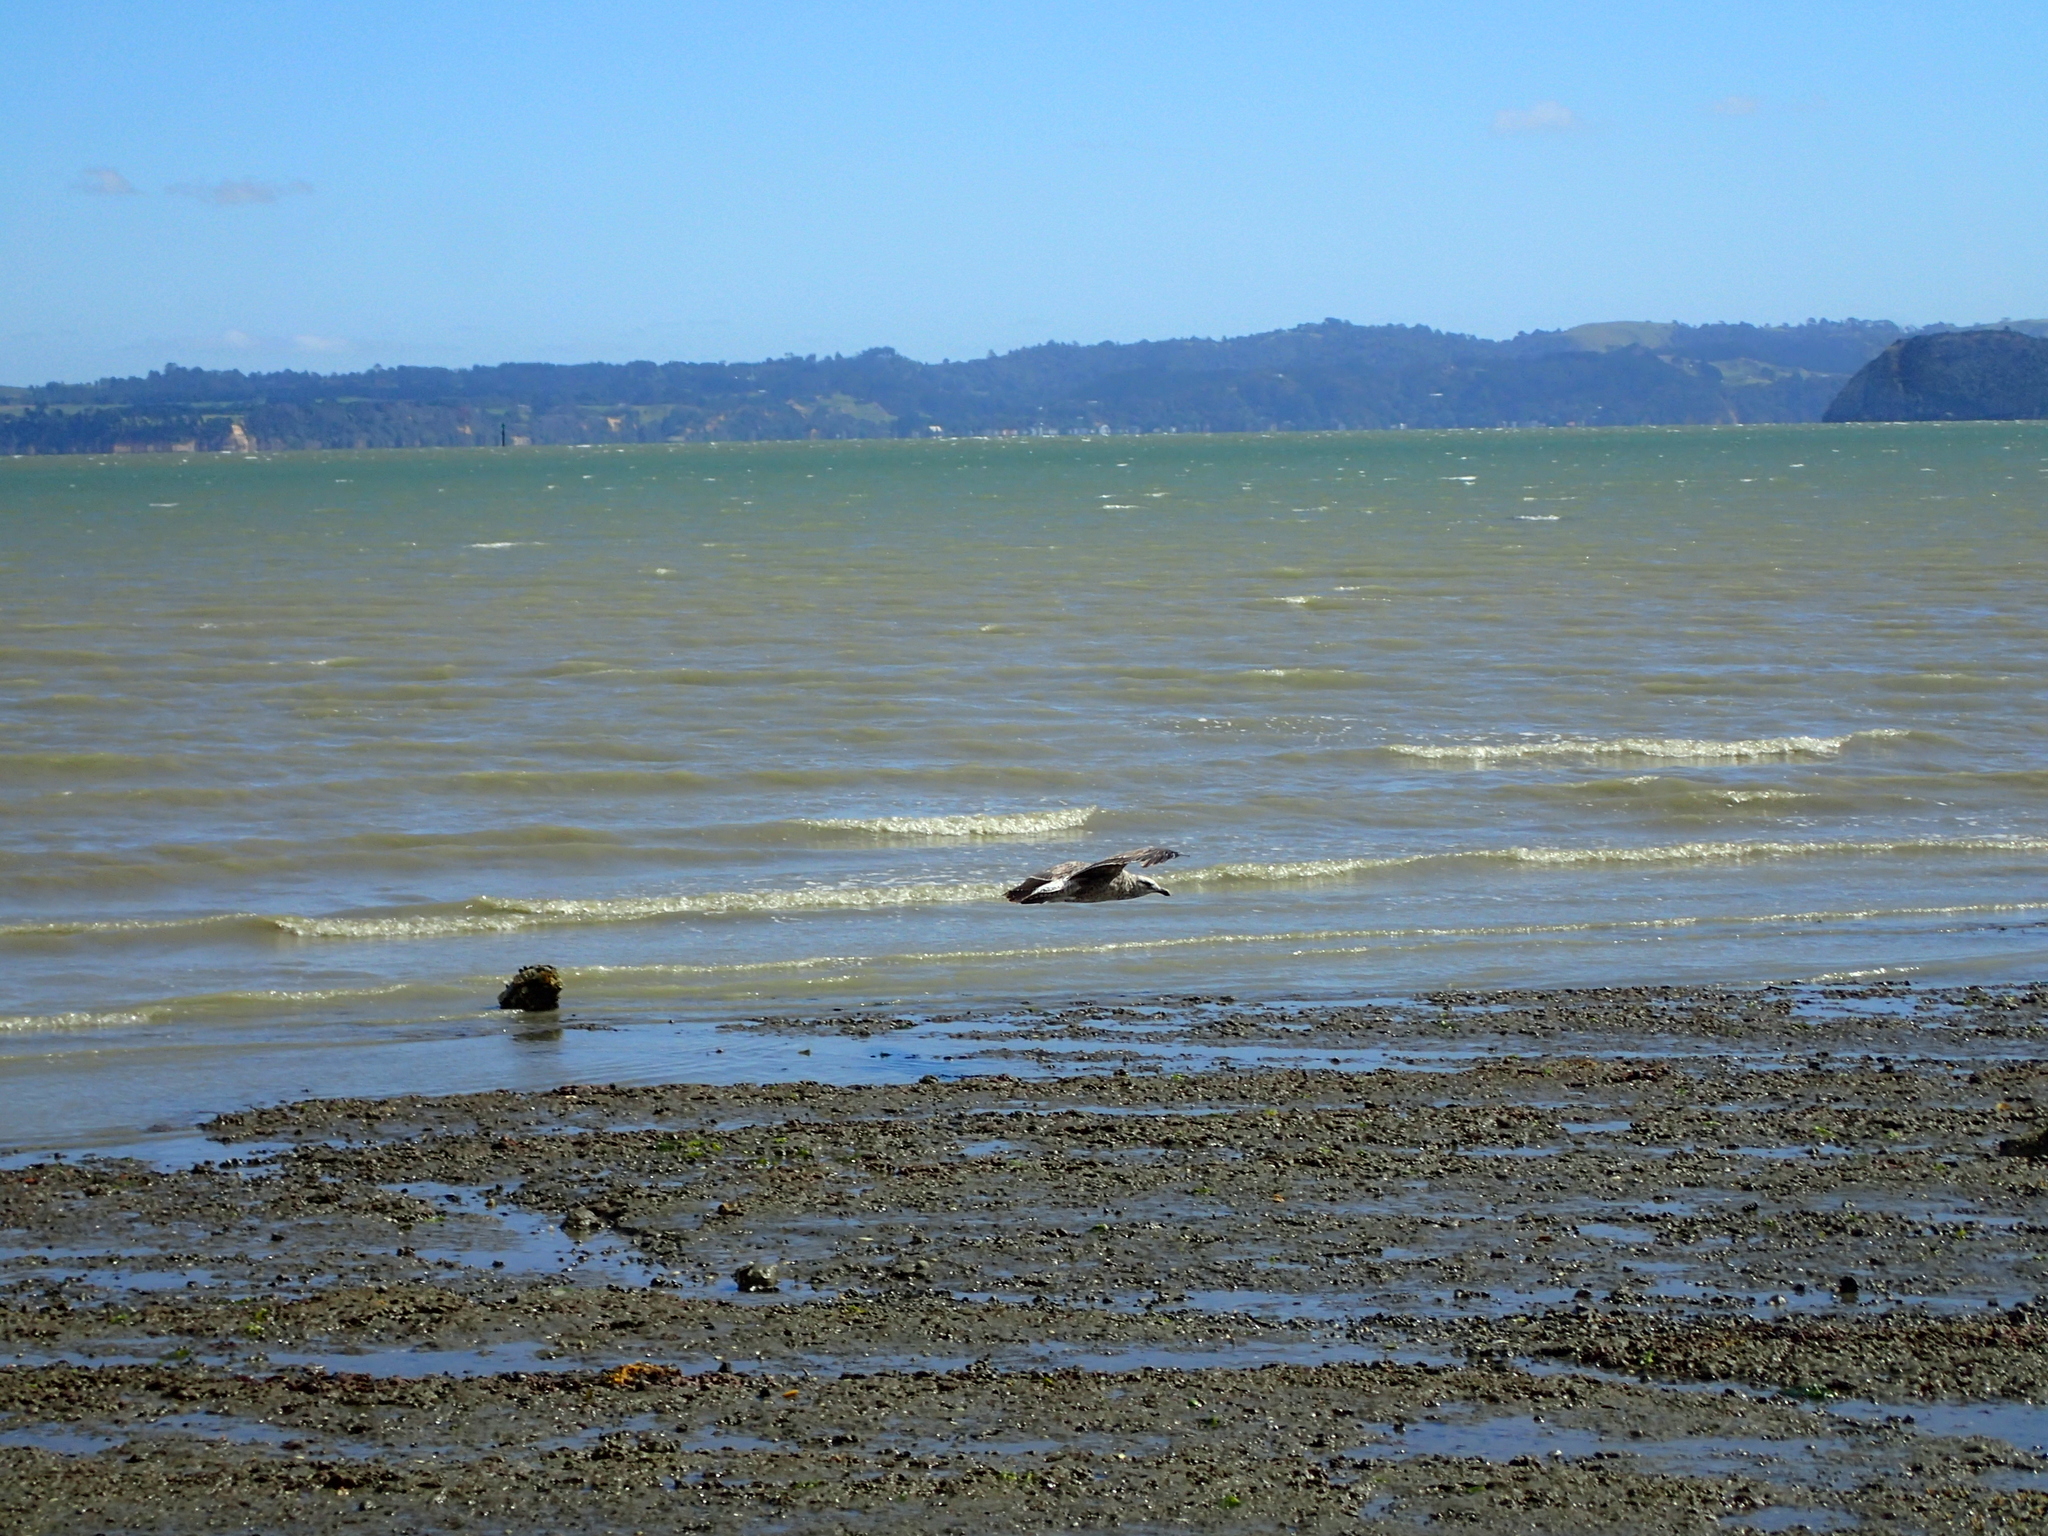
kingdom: Animalia
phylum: Chordata
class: Aves
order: Charadriiformes
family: Laridae
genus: Larus
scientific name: Larus dominicanus
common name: Kelp gull
